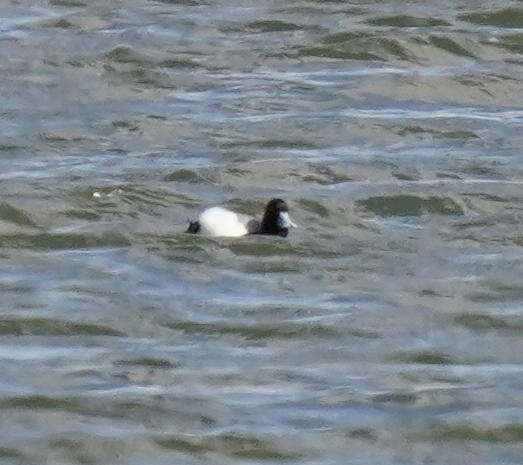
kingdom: Animalia
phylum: Chordata
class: Aves
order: Anseriformes
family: Anatidae
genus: Aythya
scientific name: Aythya affinis
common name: Lesser scaup
